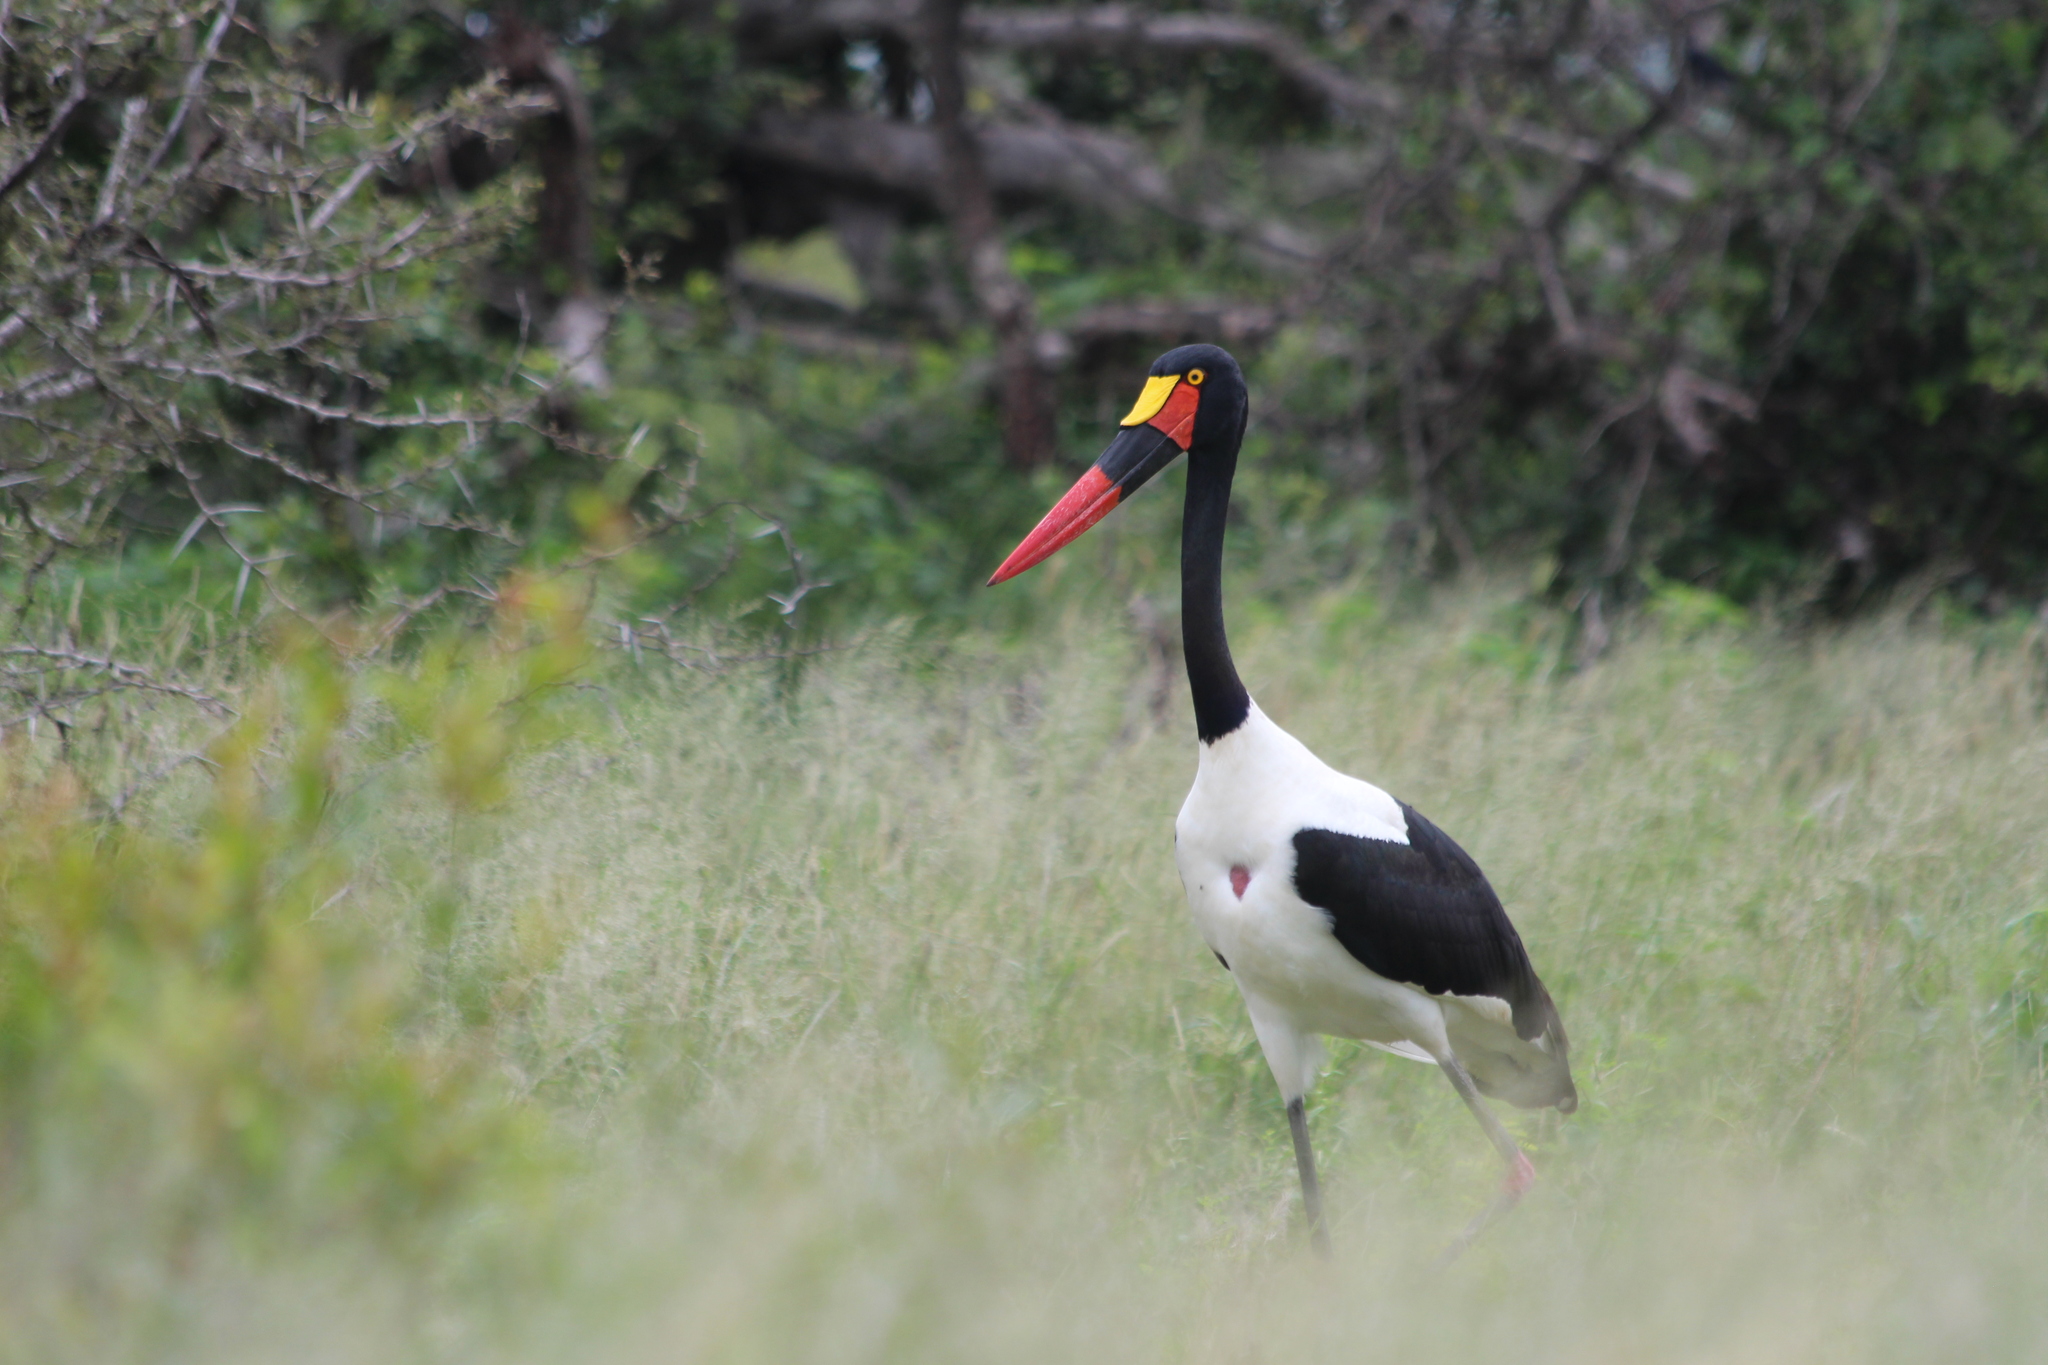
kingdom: Animalia
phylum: Chordata
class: Aves
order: Ciconiiformes
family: Ciconiidae
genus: Ephippiorhynchus
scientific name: Ephippiorhynchus senegalensis
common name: Saddle-billed stork
